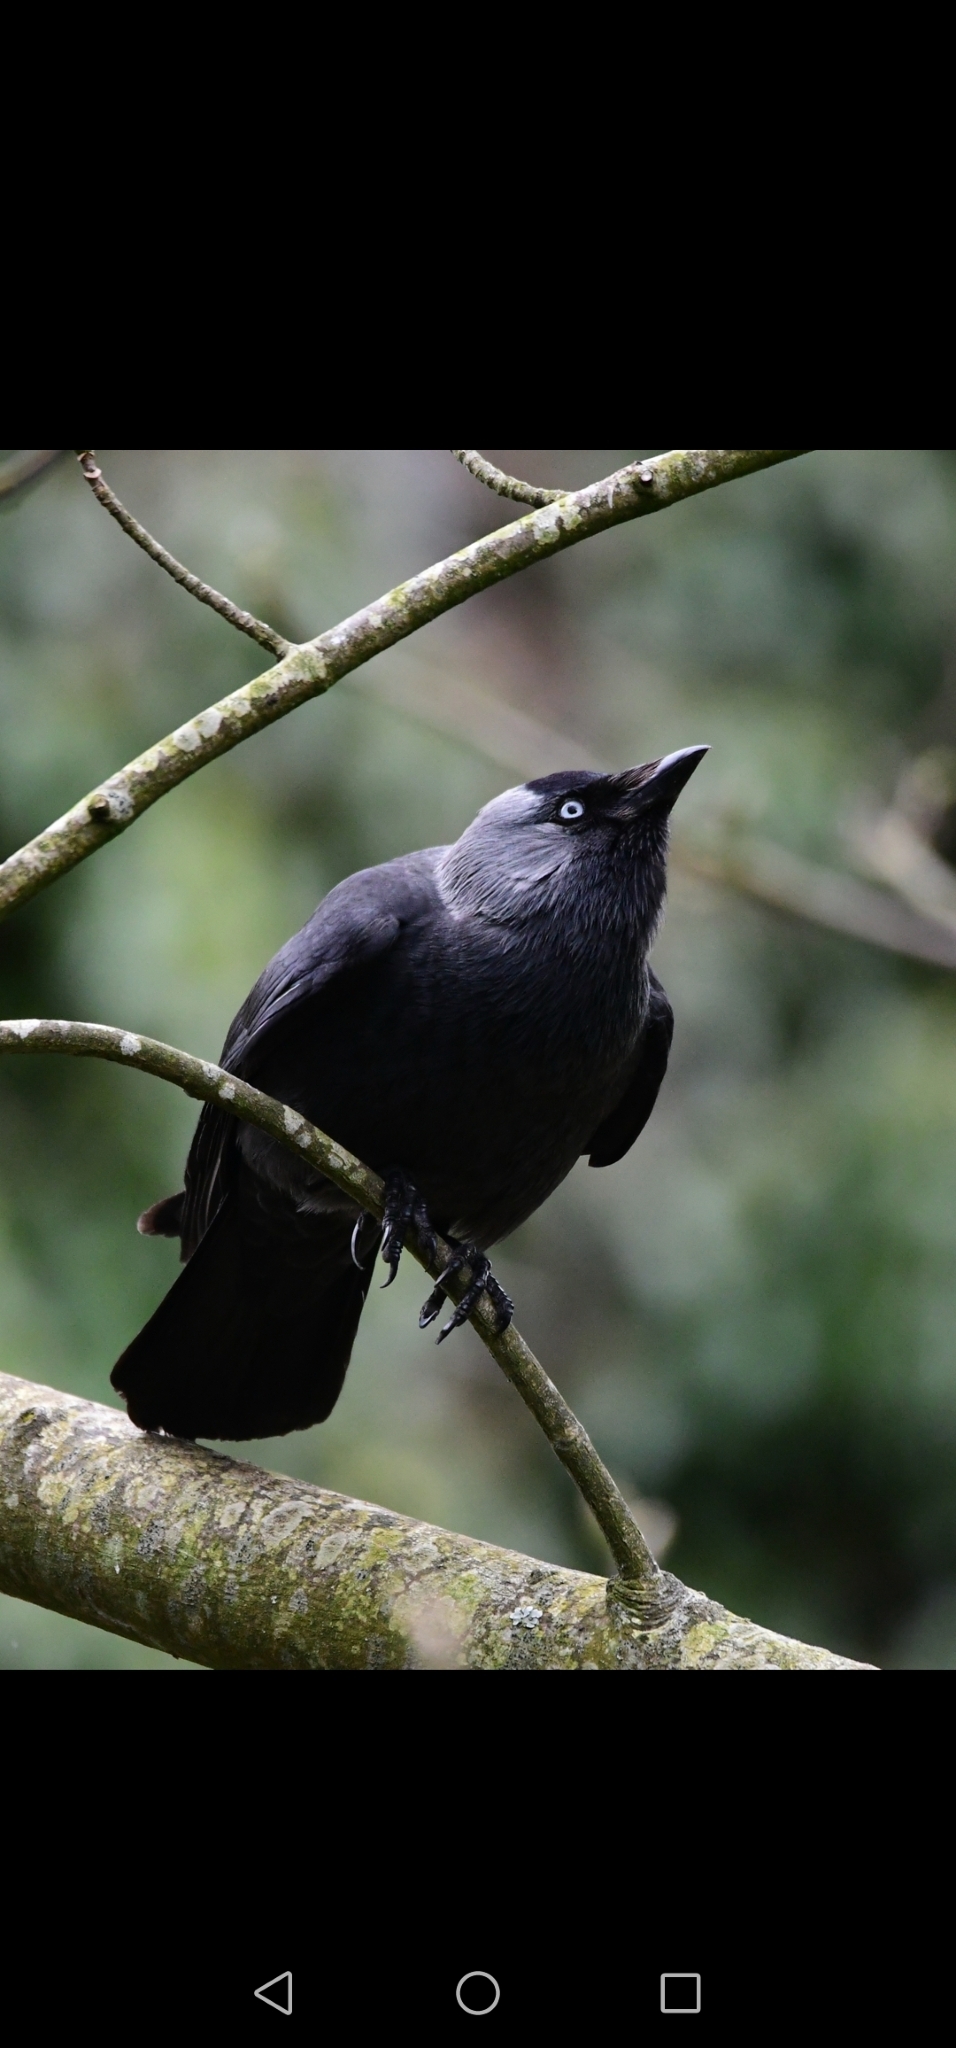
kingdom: Animalia
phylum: Chordata
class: Aves
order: Passeriformes
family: Corvidae
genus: Coloeus
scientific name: Coloeus monedula
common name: Western jackdaw
